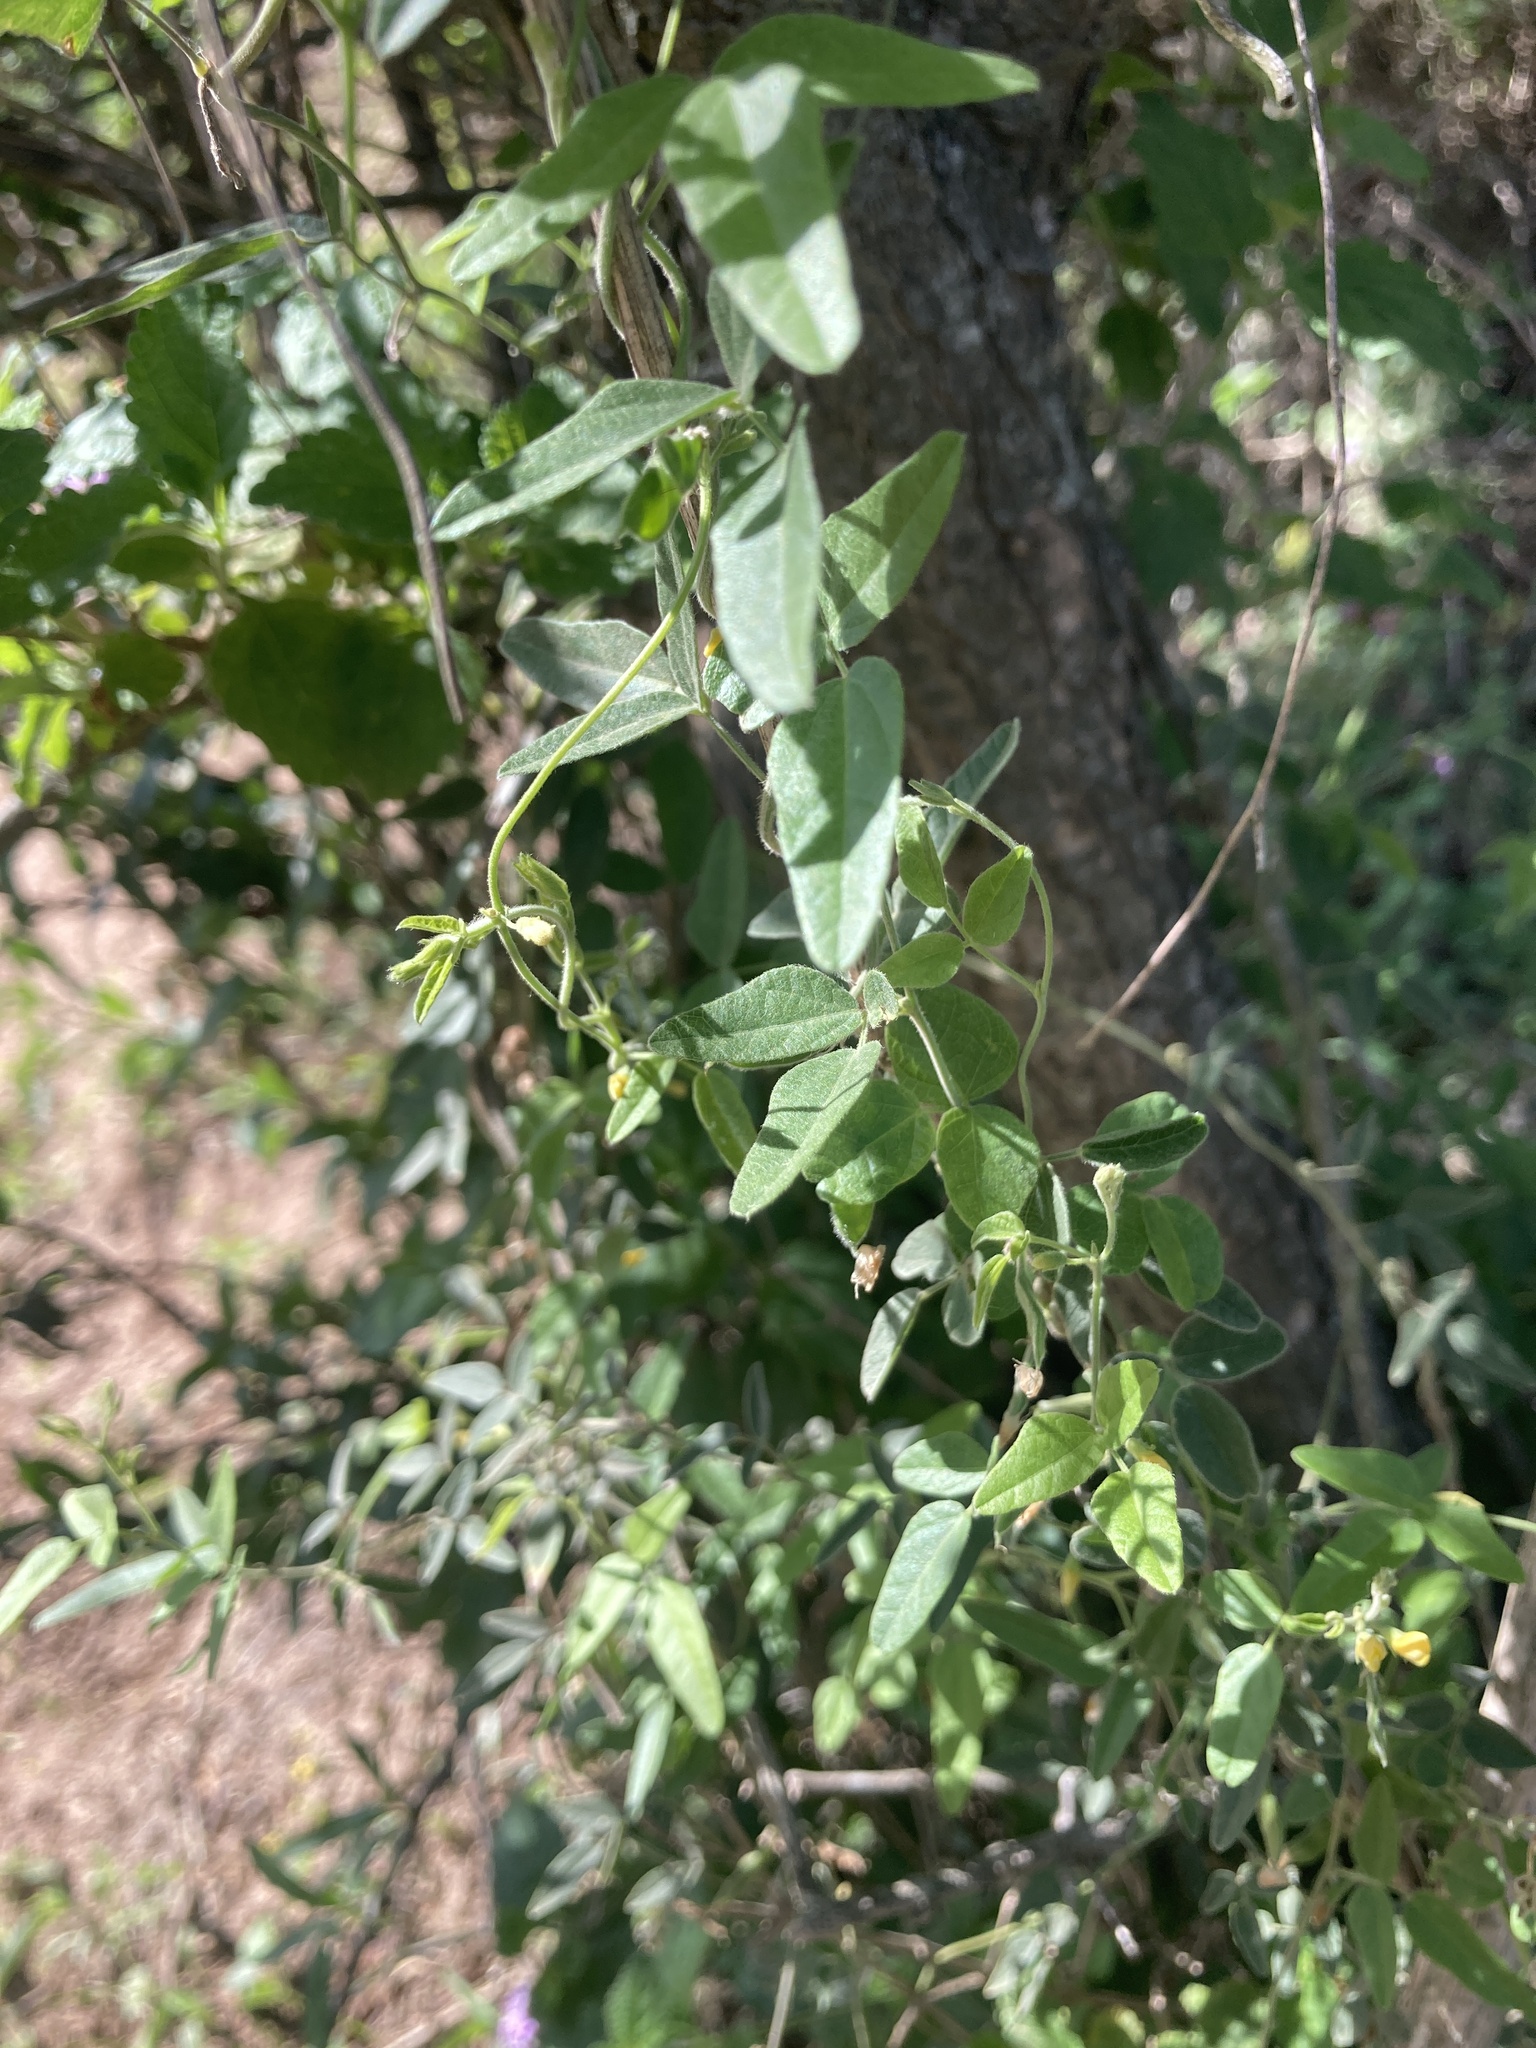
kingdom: Plantae
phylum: Tracheophyta
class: Magnoliopsida
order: Fabales
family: Fabaceae
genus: Rhynchosia
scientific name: Rhynchosia senna
